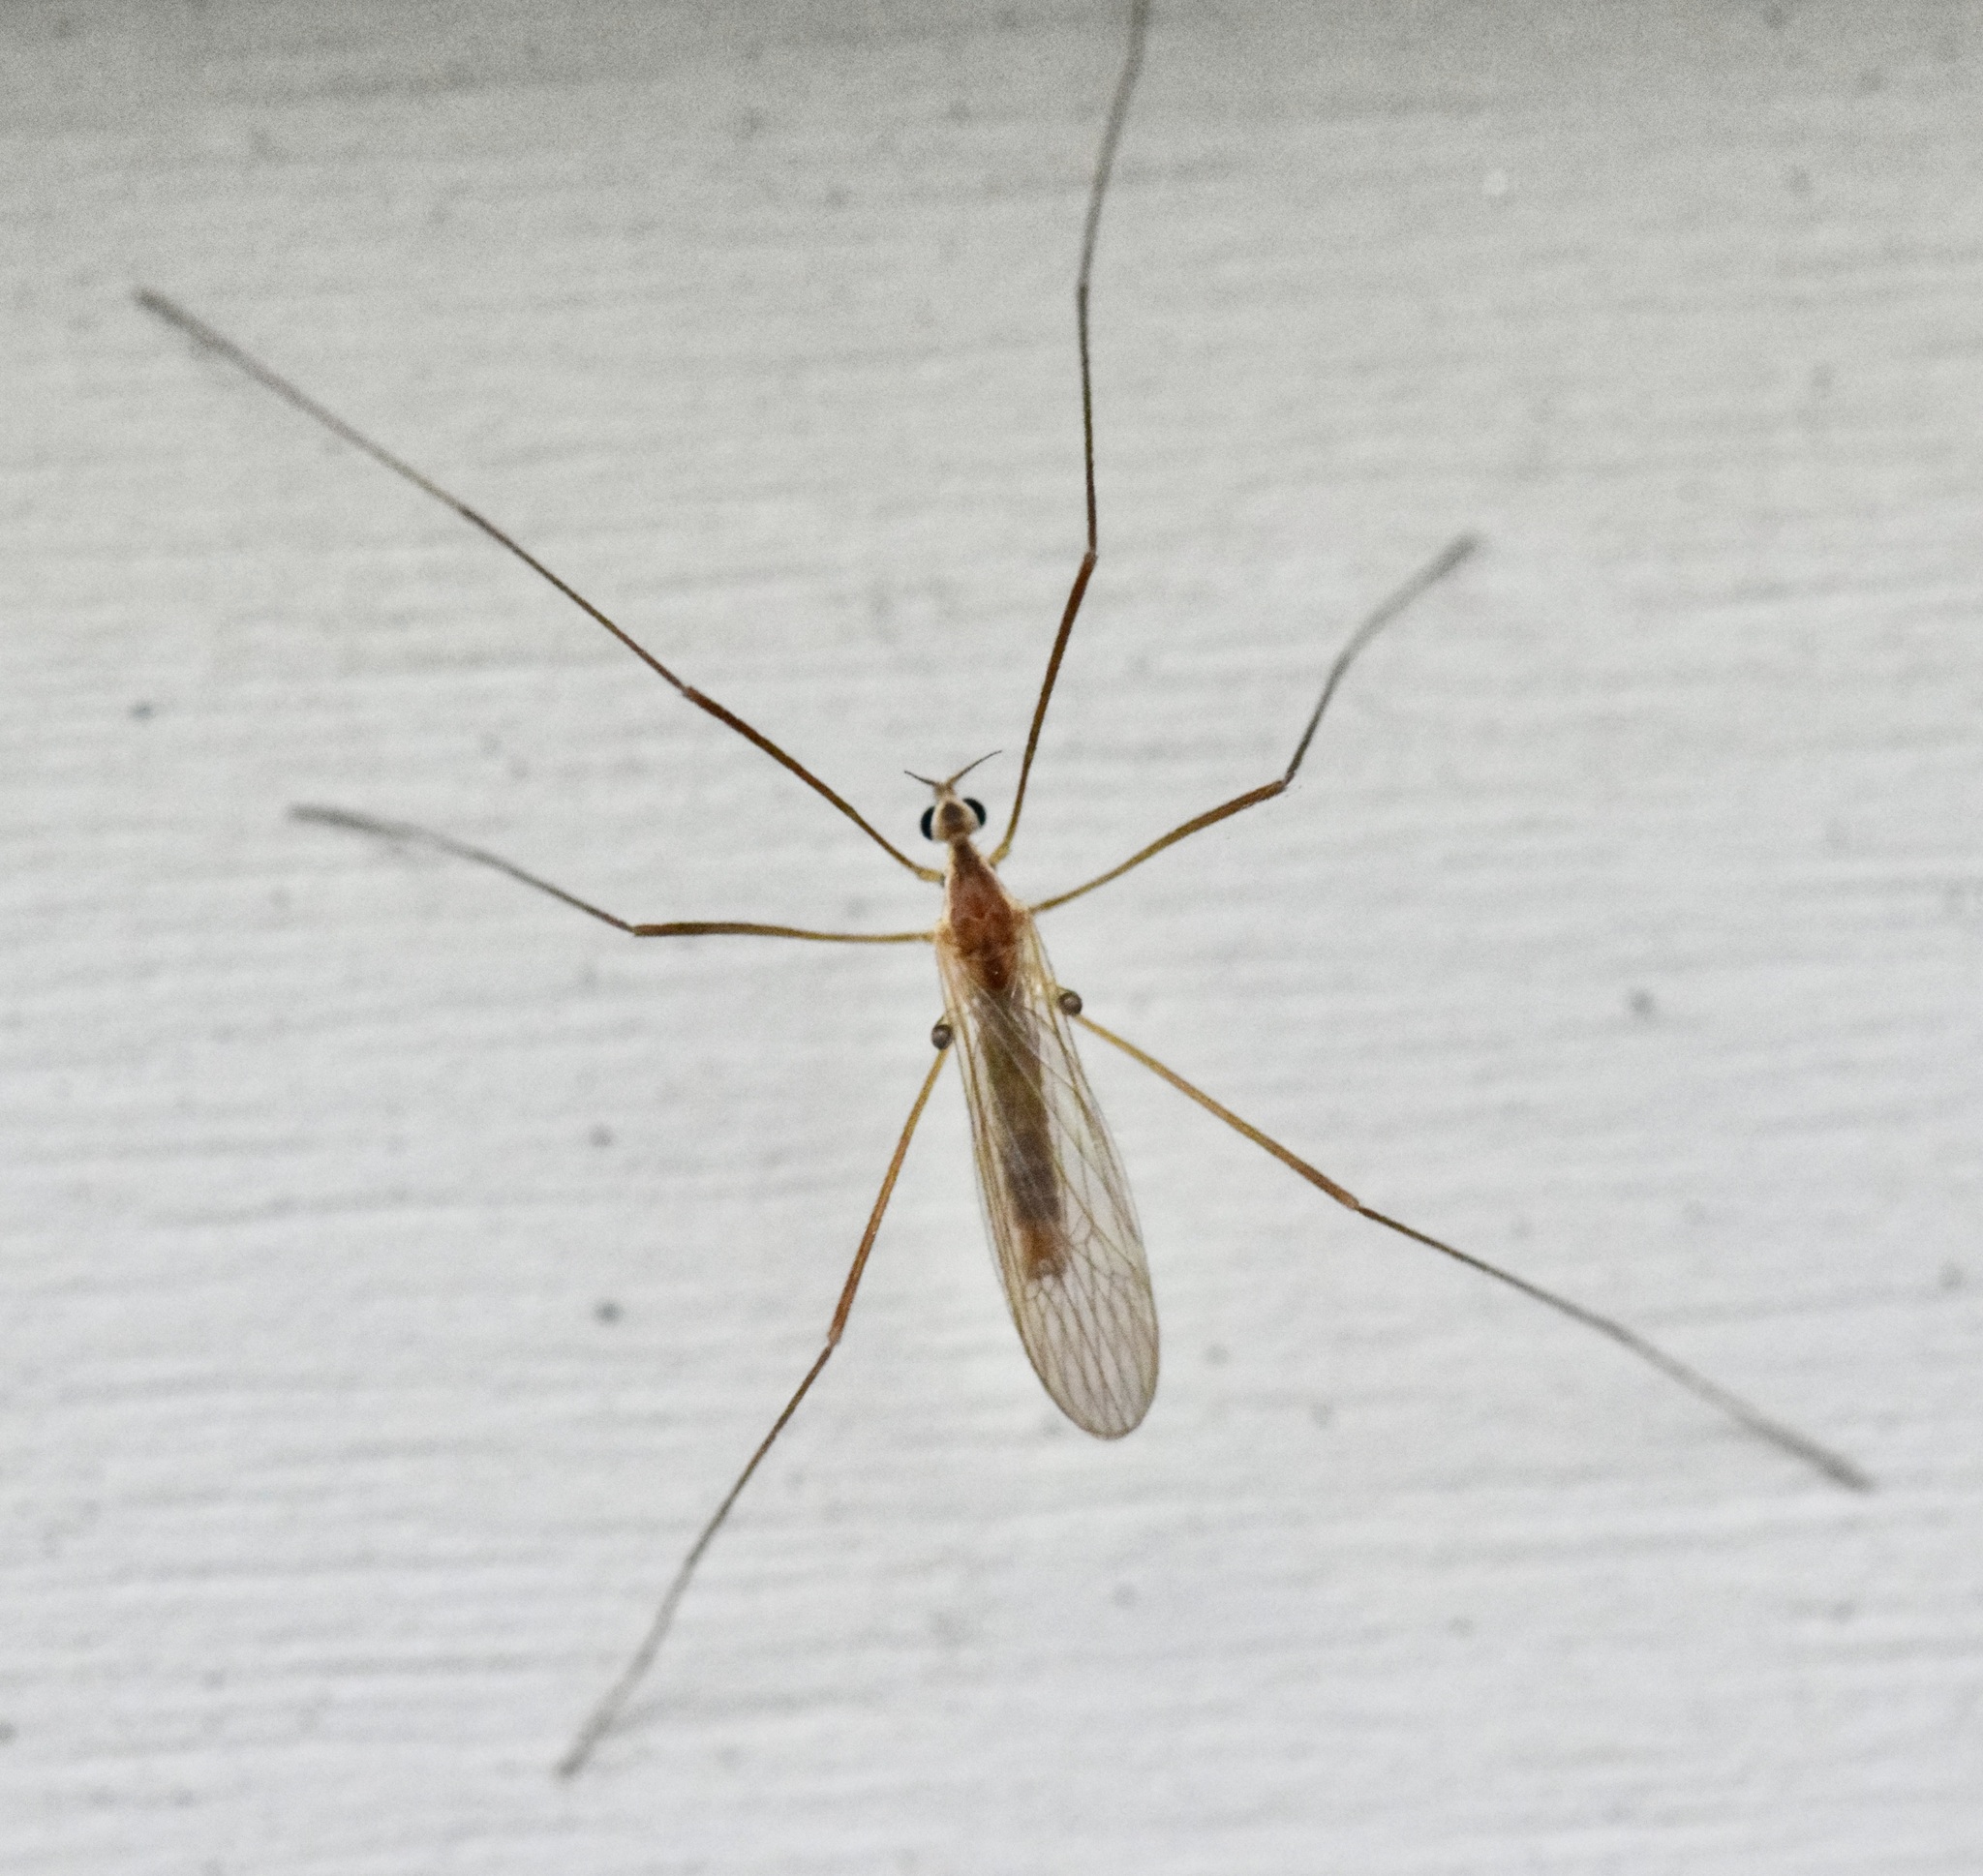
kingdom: Animalia
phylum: Arthropoda
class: Insecta
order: Diptera
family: Limoniidae
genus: Erioptera
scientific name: Erioptera septemtrionis
